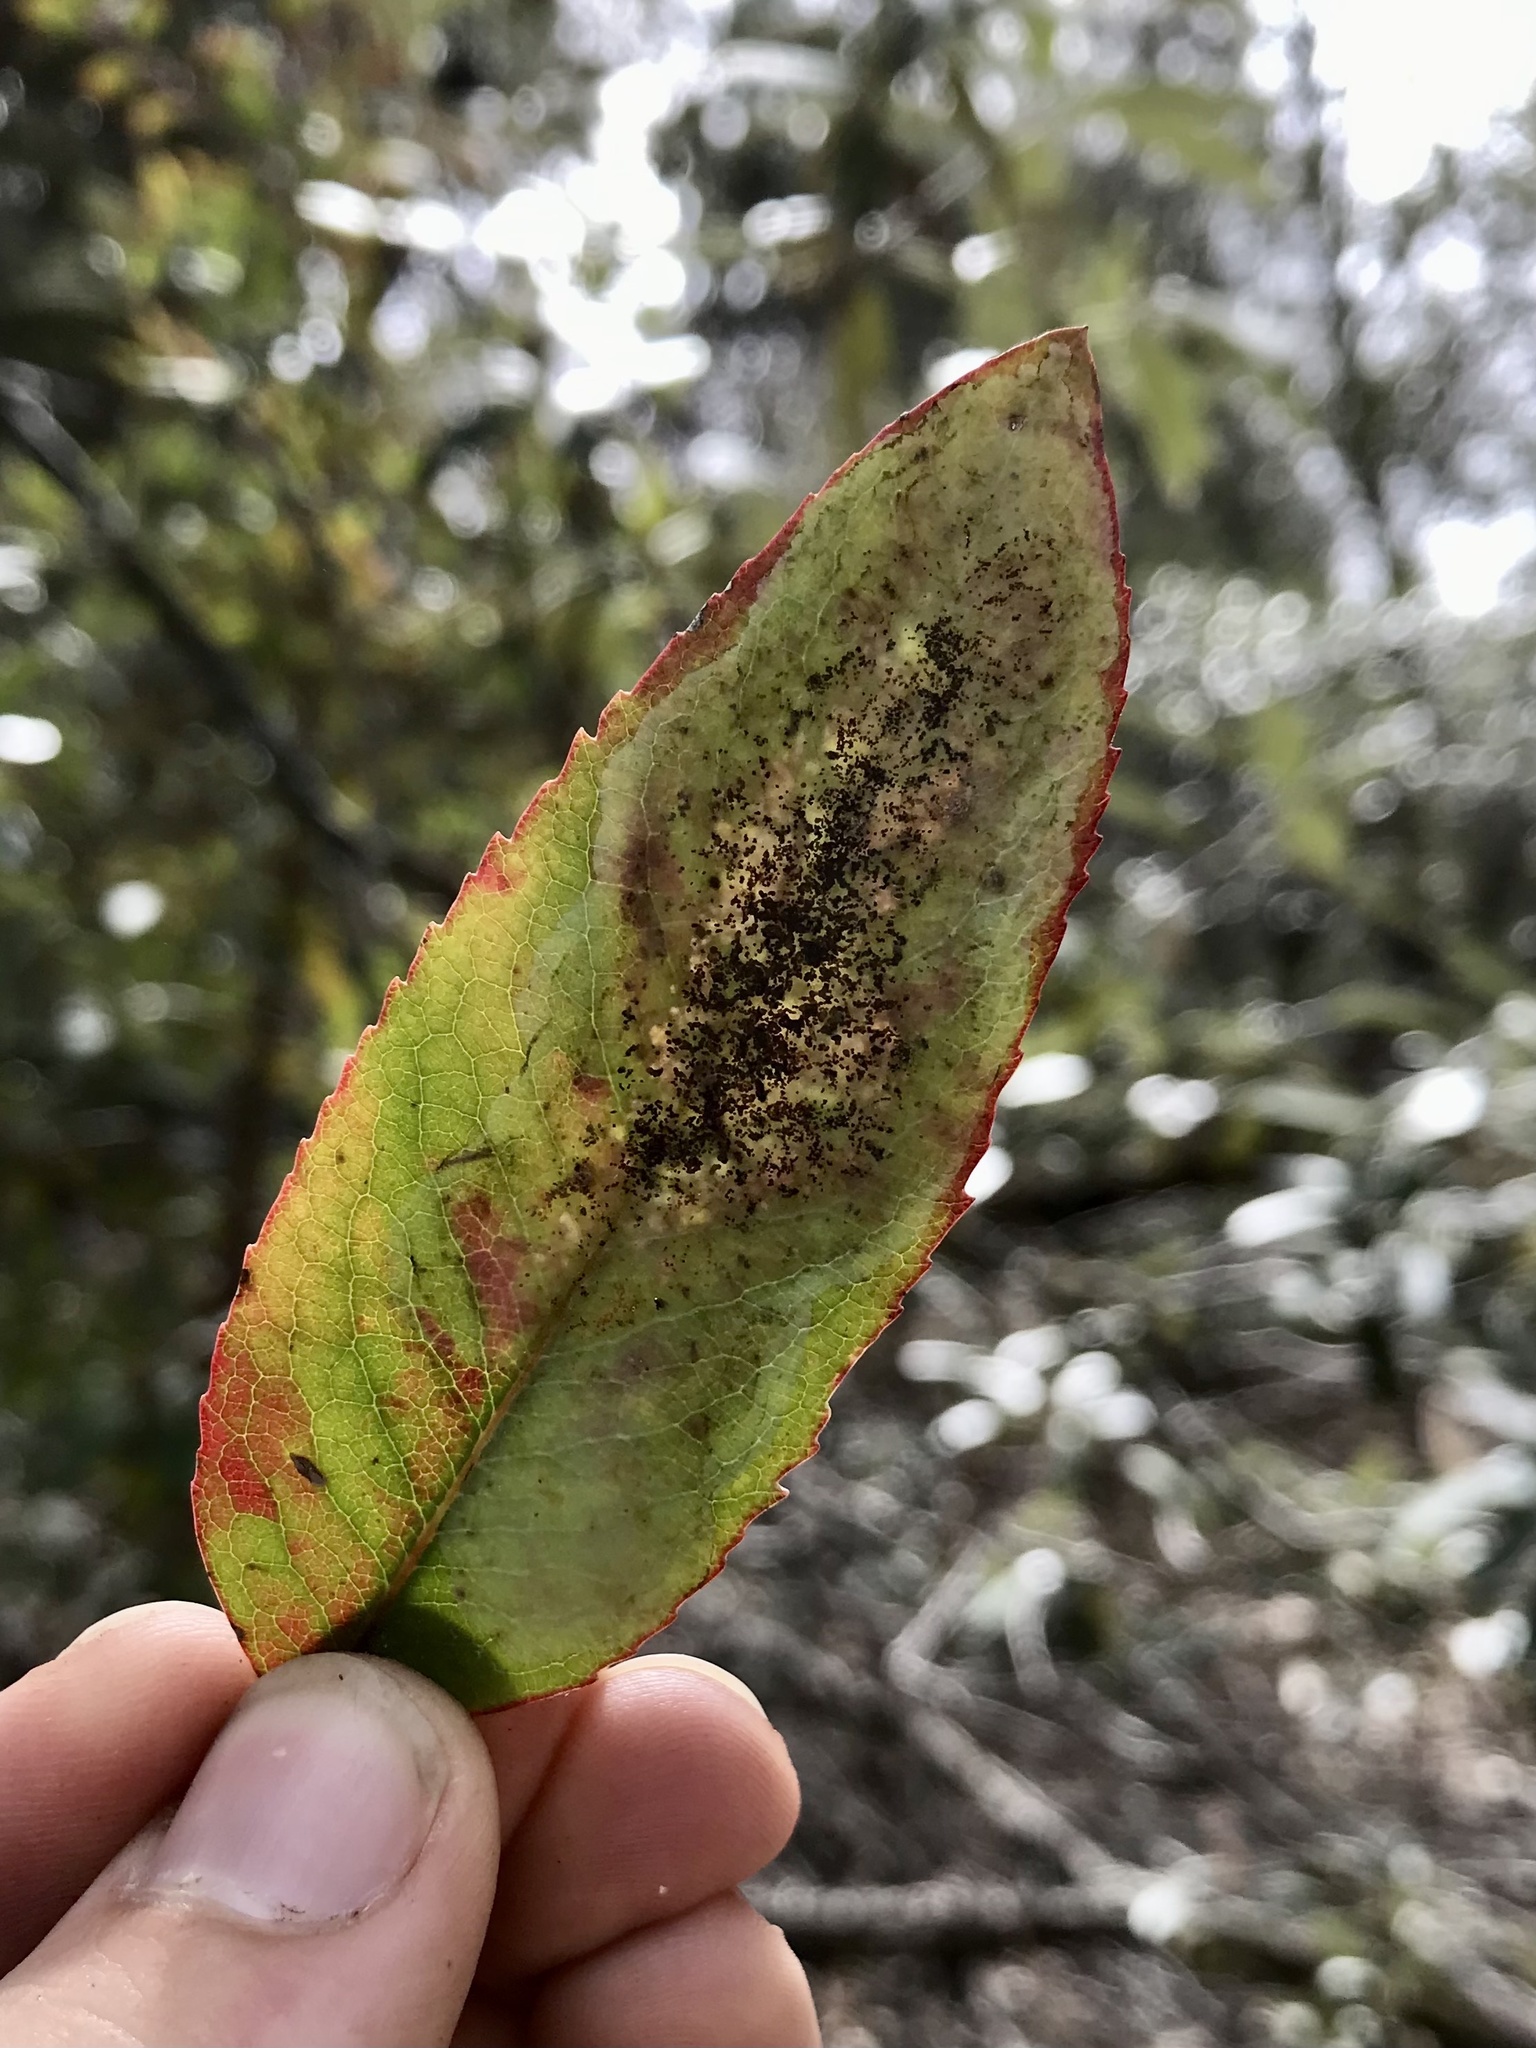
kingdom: Animalia
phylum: Arthropoda
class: Insecta
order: Lepidoptera
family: Gracillariidae
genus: Acrocercops
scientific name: Acrocercops arbutella
